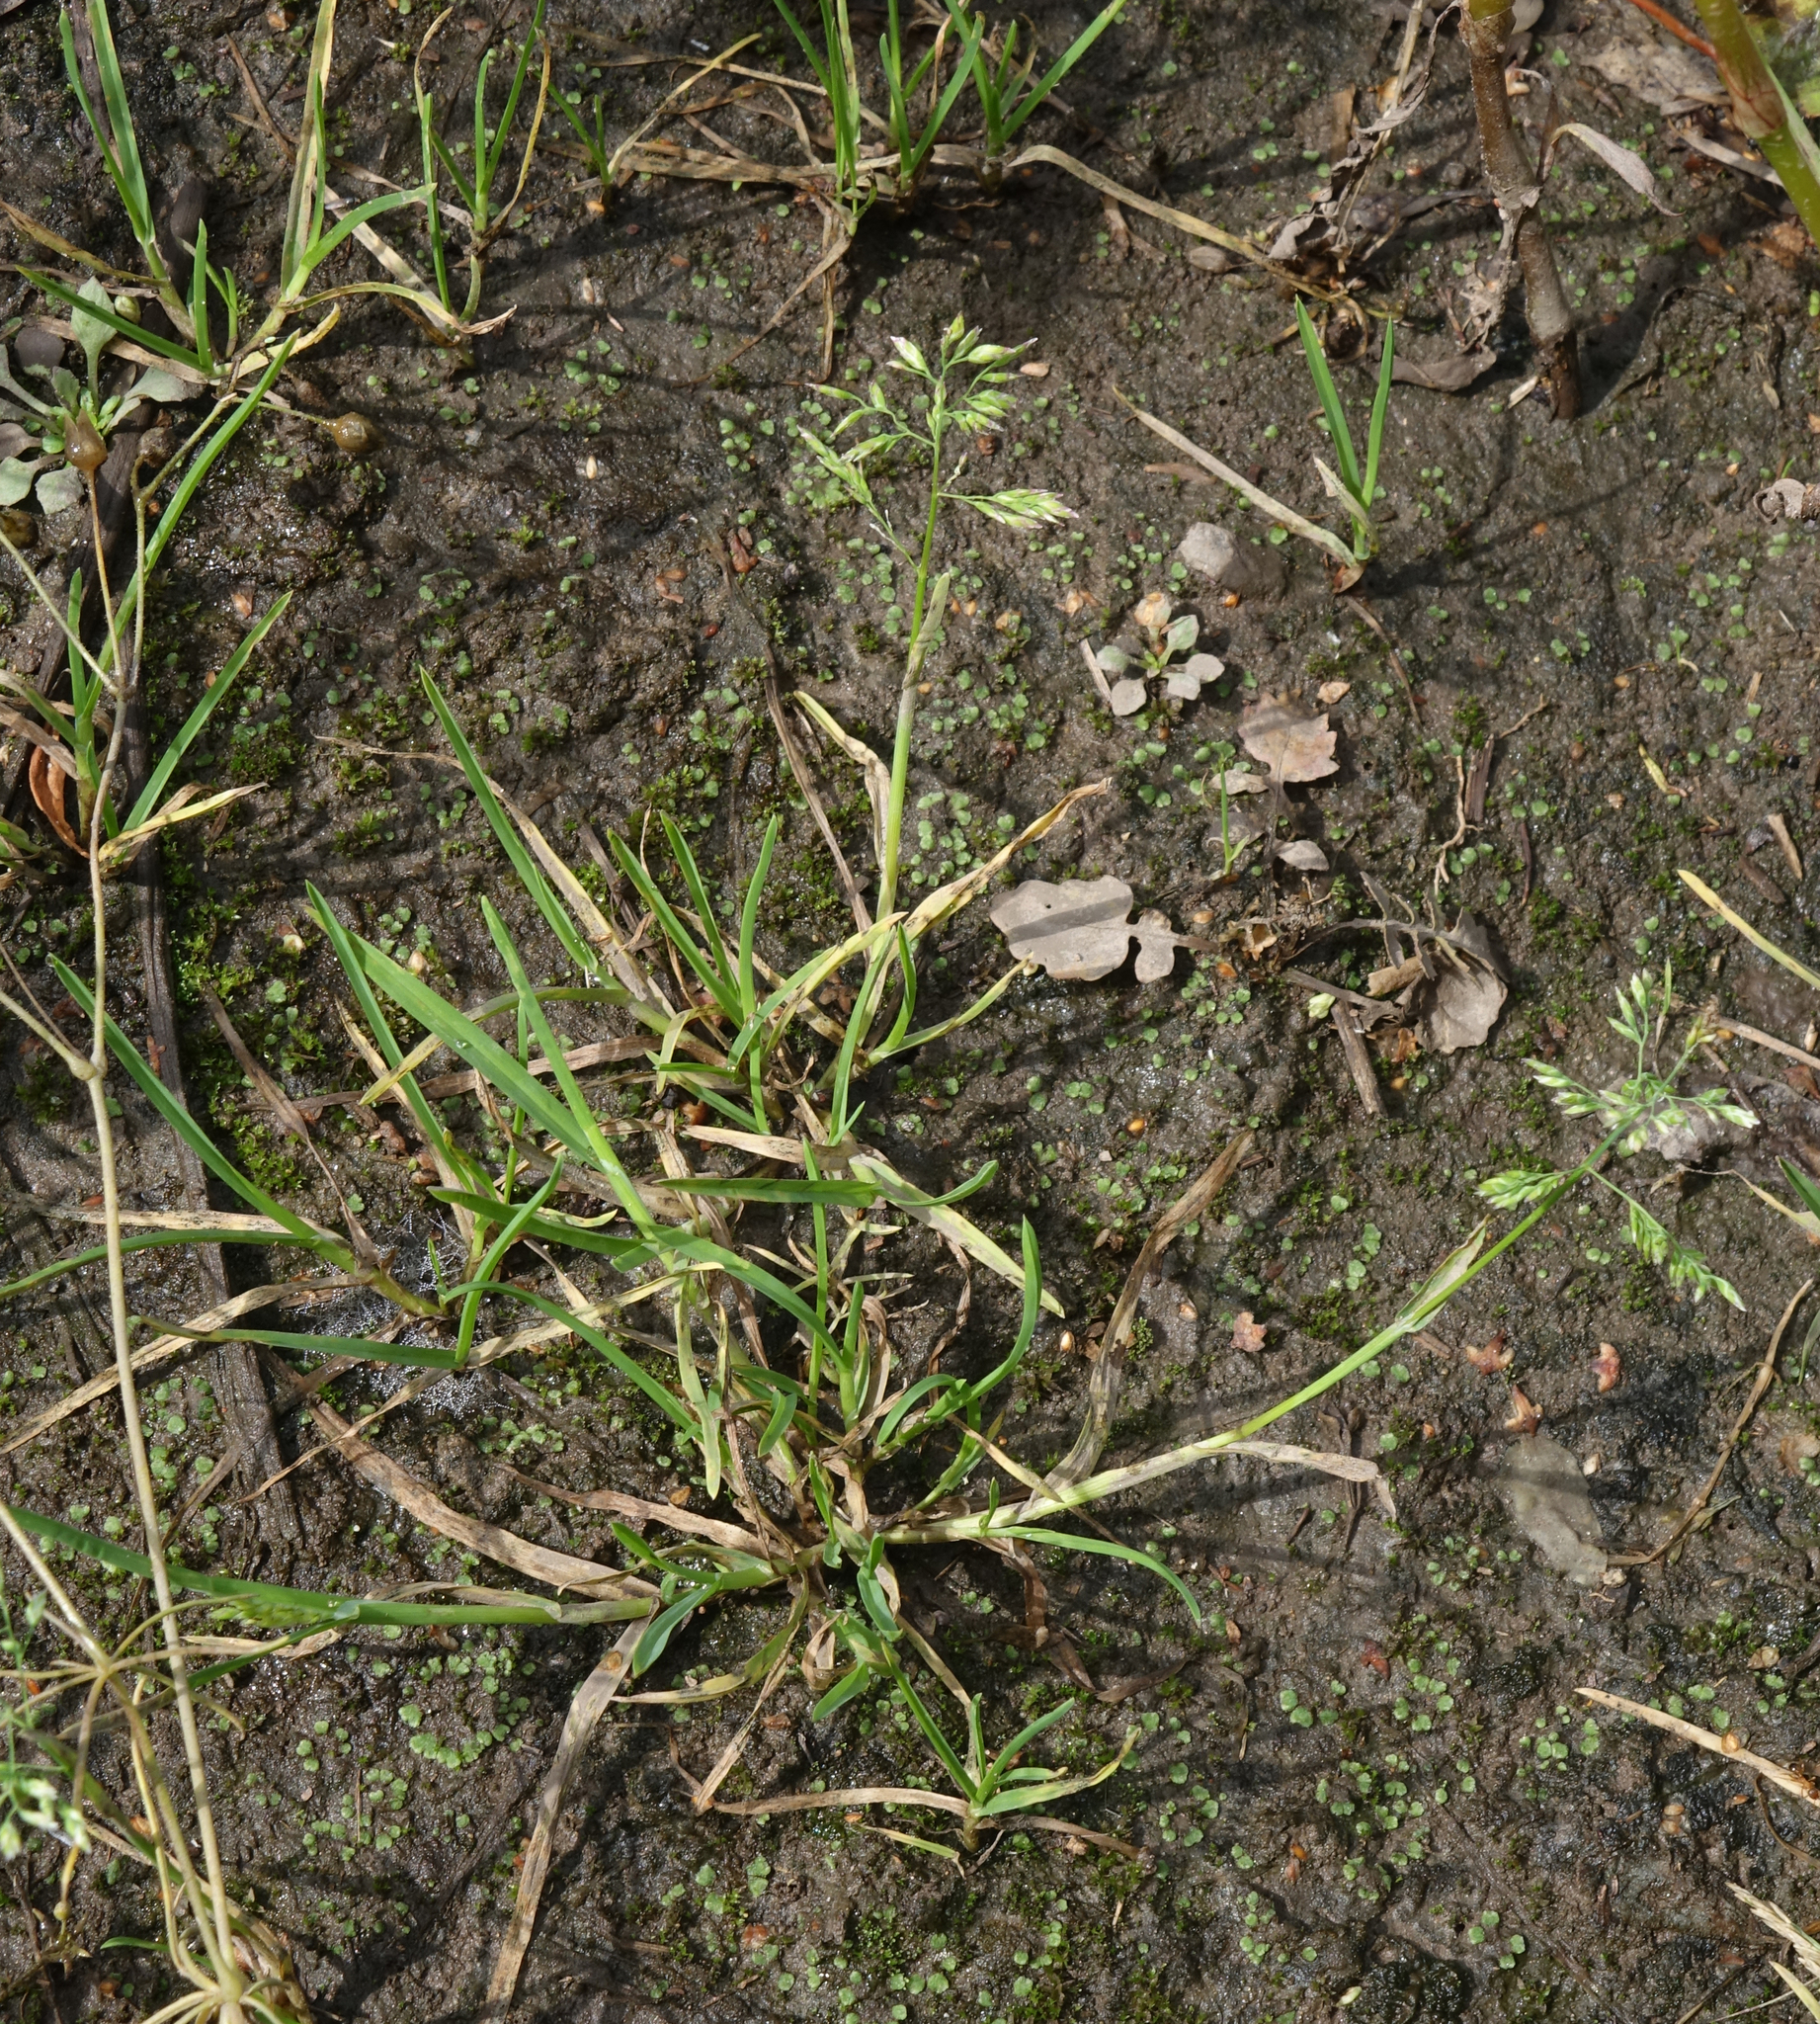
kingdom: Plantae
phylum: Tracheophyta
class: Liliopsida
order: Poales
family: Poaceae
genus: Poa
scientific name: Poa annua
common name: Annual bluegrass
